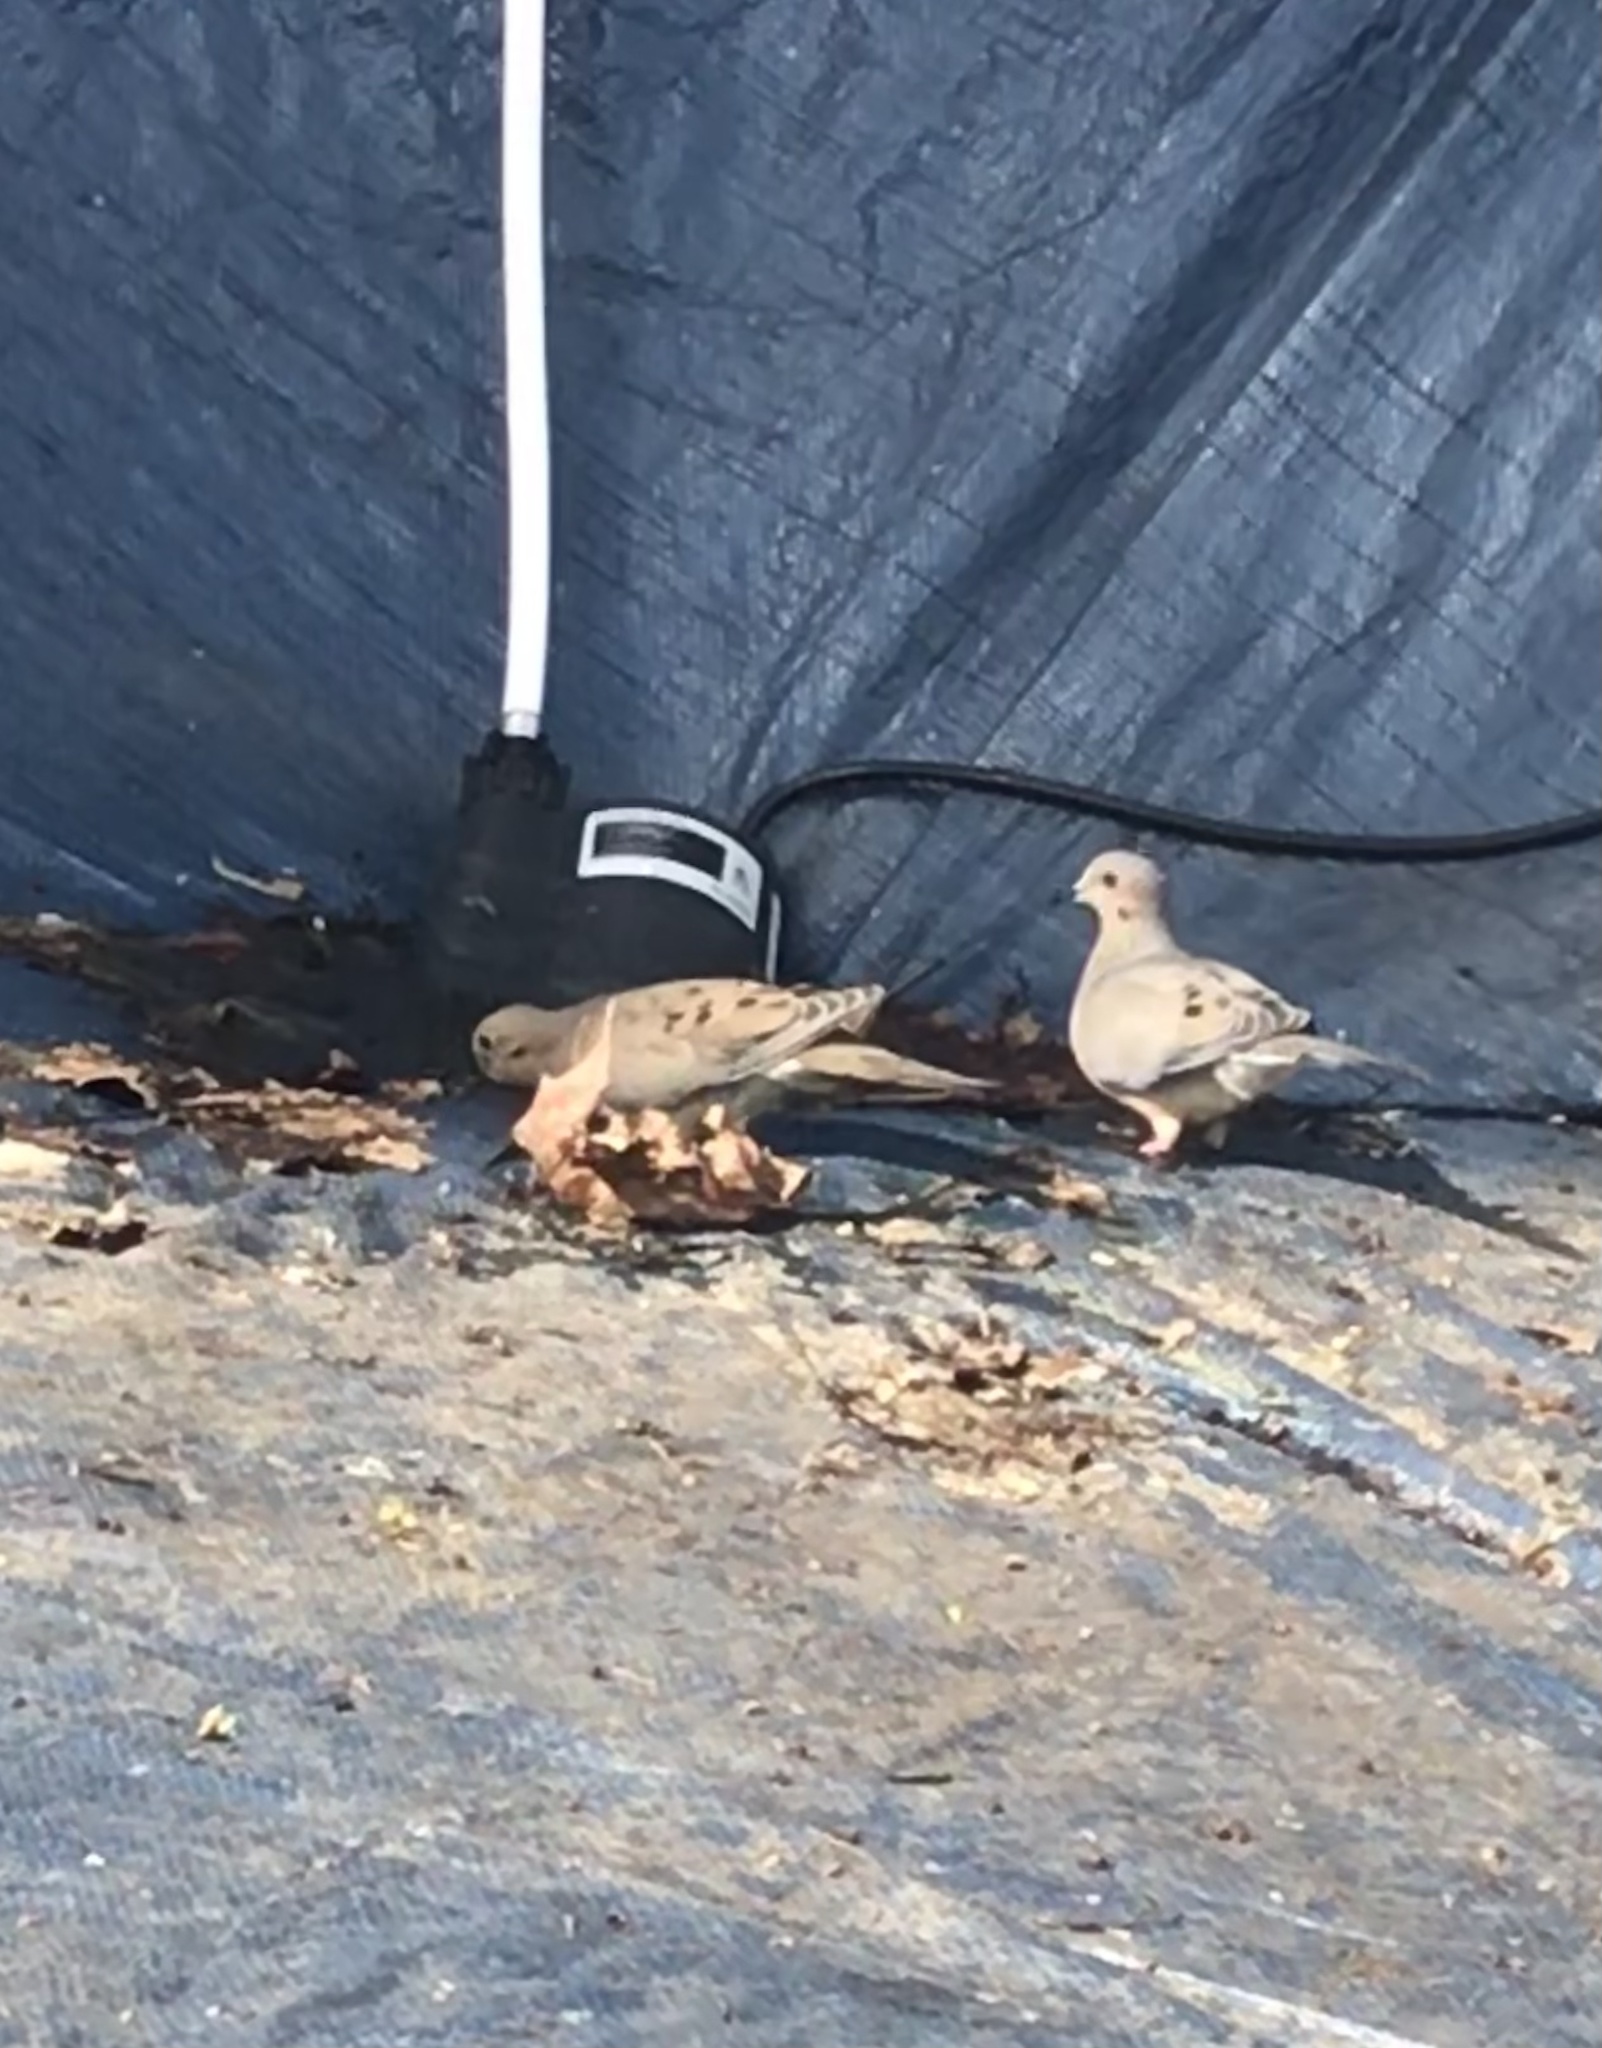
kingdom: Animalia
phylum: Chordata
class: Aves
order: Columbiformes
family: Columbidae
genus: Zenaida
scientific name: Zenaida macroura
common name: Mourning dove
